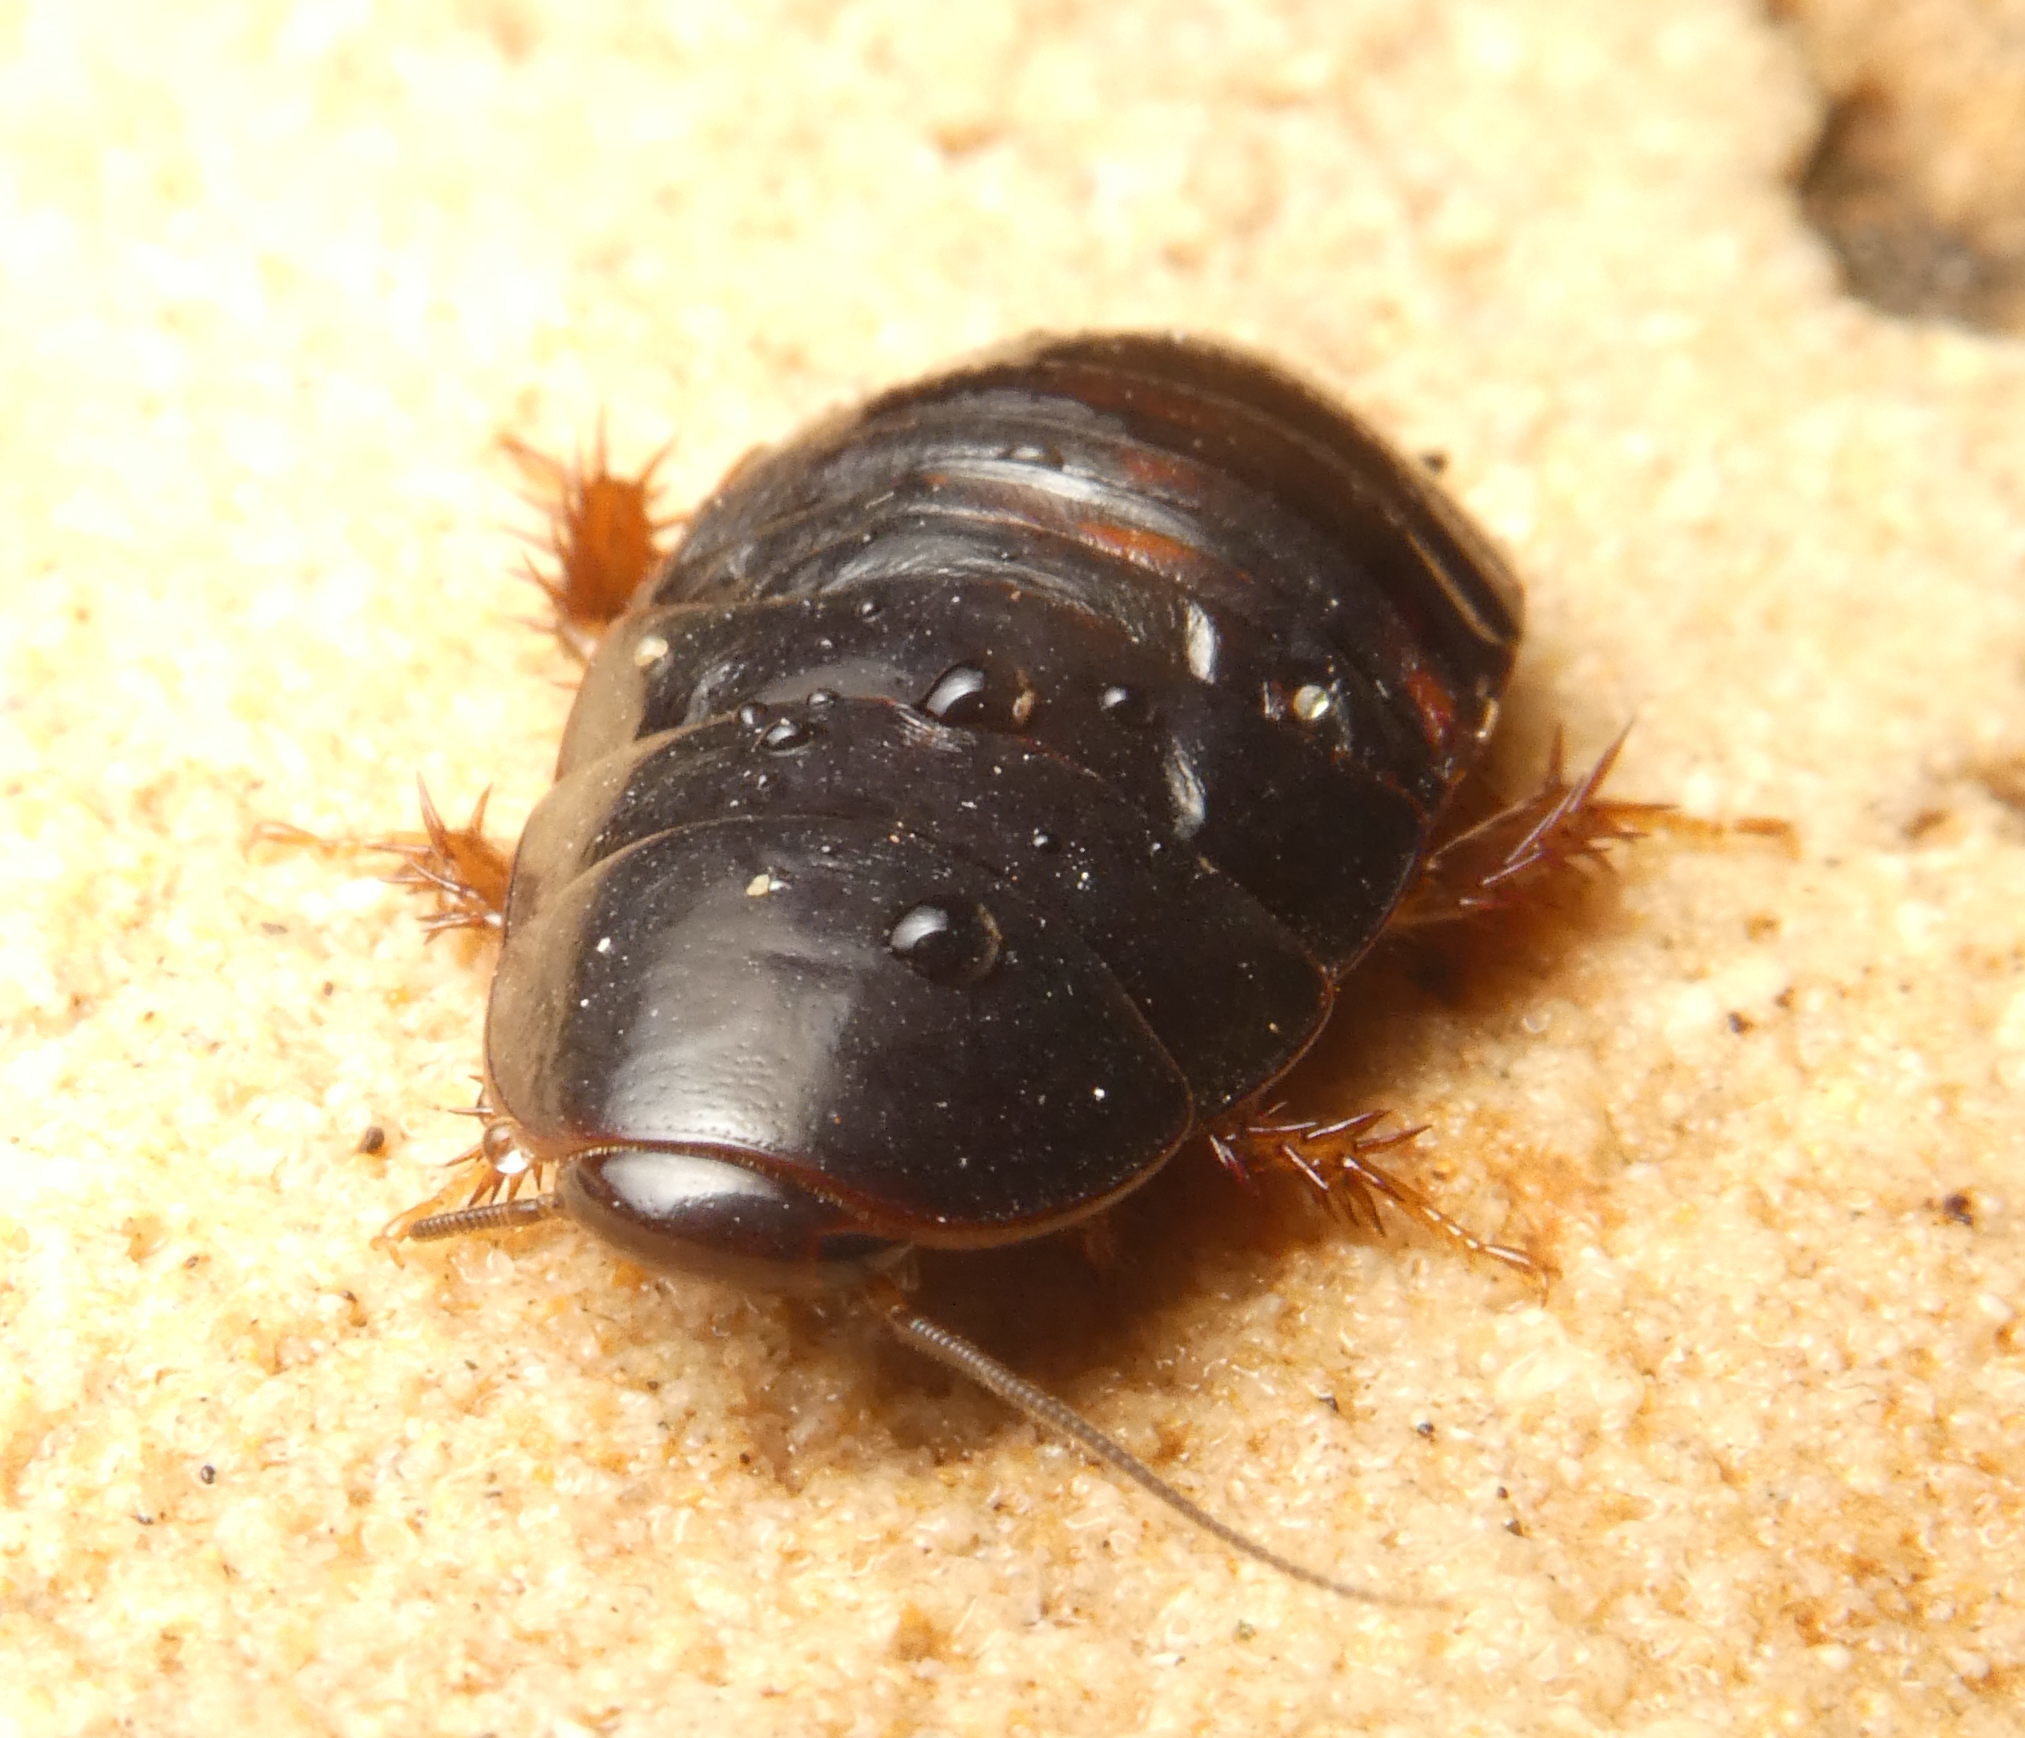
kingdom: Animalia
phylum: Arthropoda
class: Insecta
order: Blattodea
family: Blaberidae
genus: Pycnoscelus
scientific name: Pycnoscelus surinamensis
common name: Surinam cockroach
